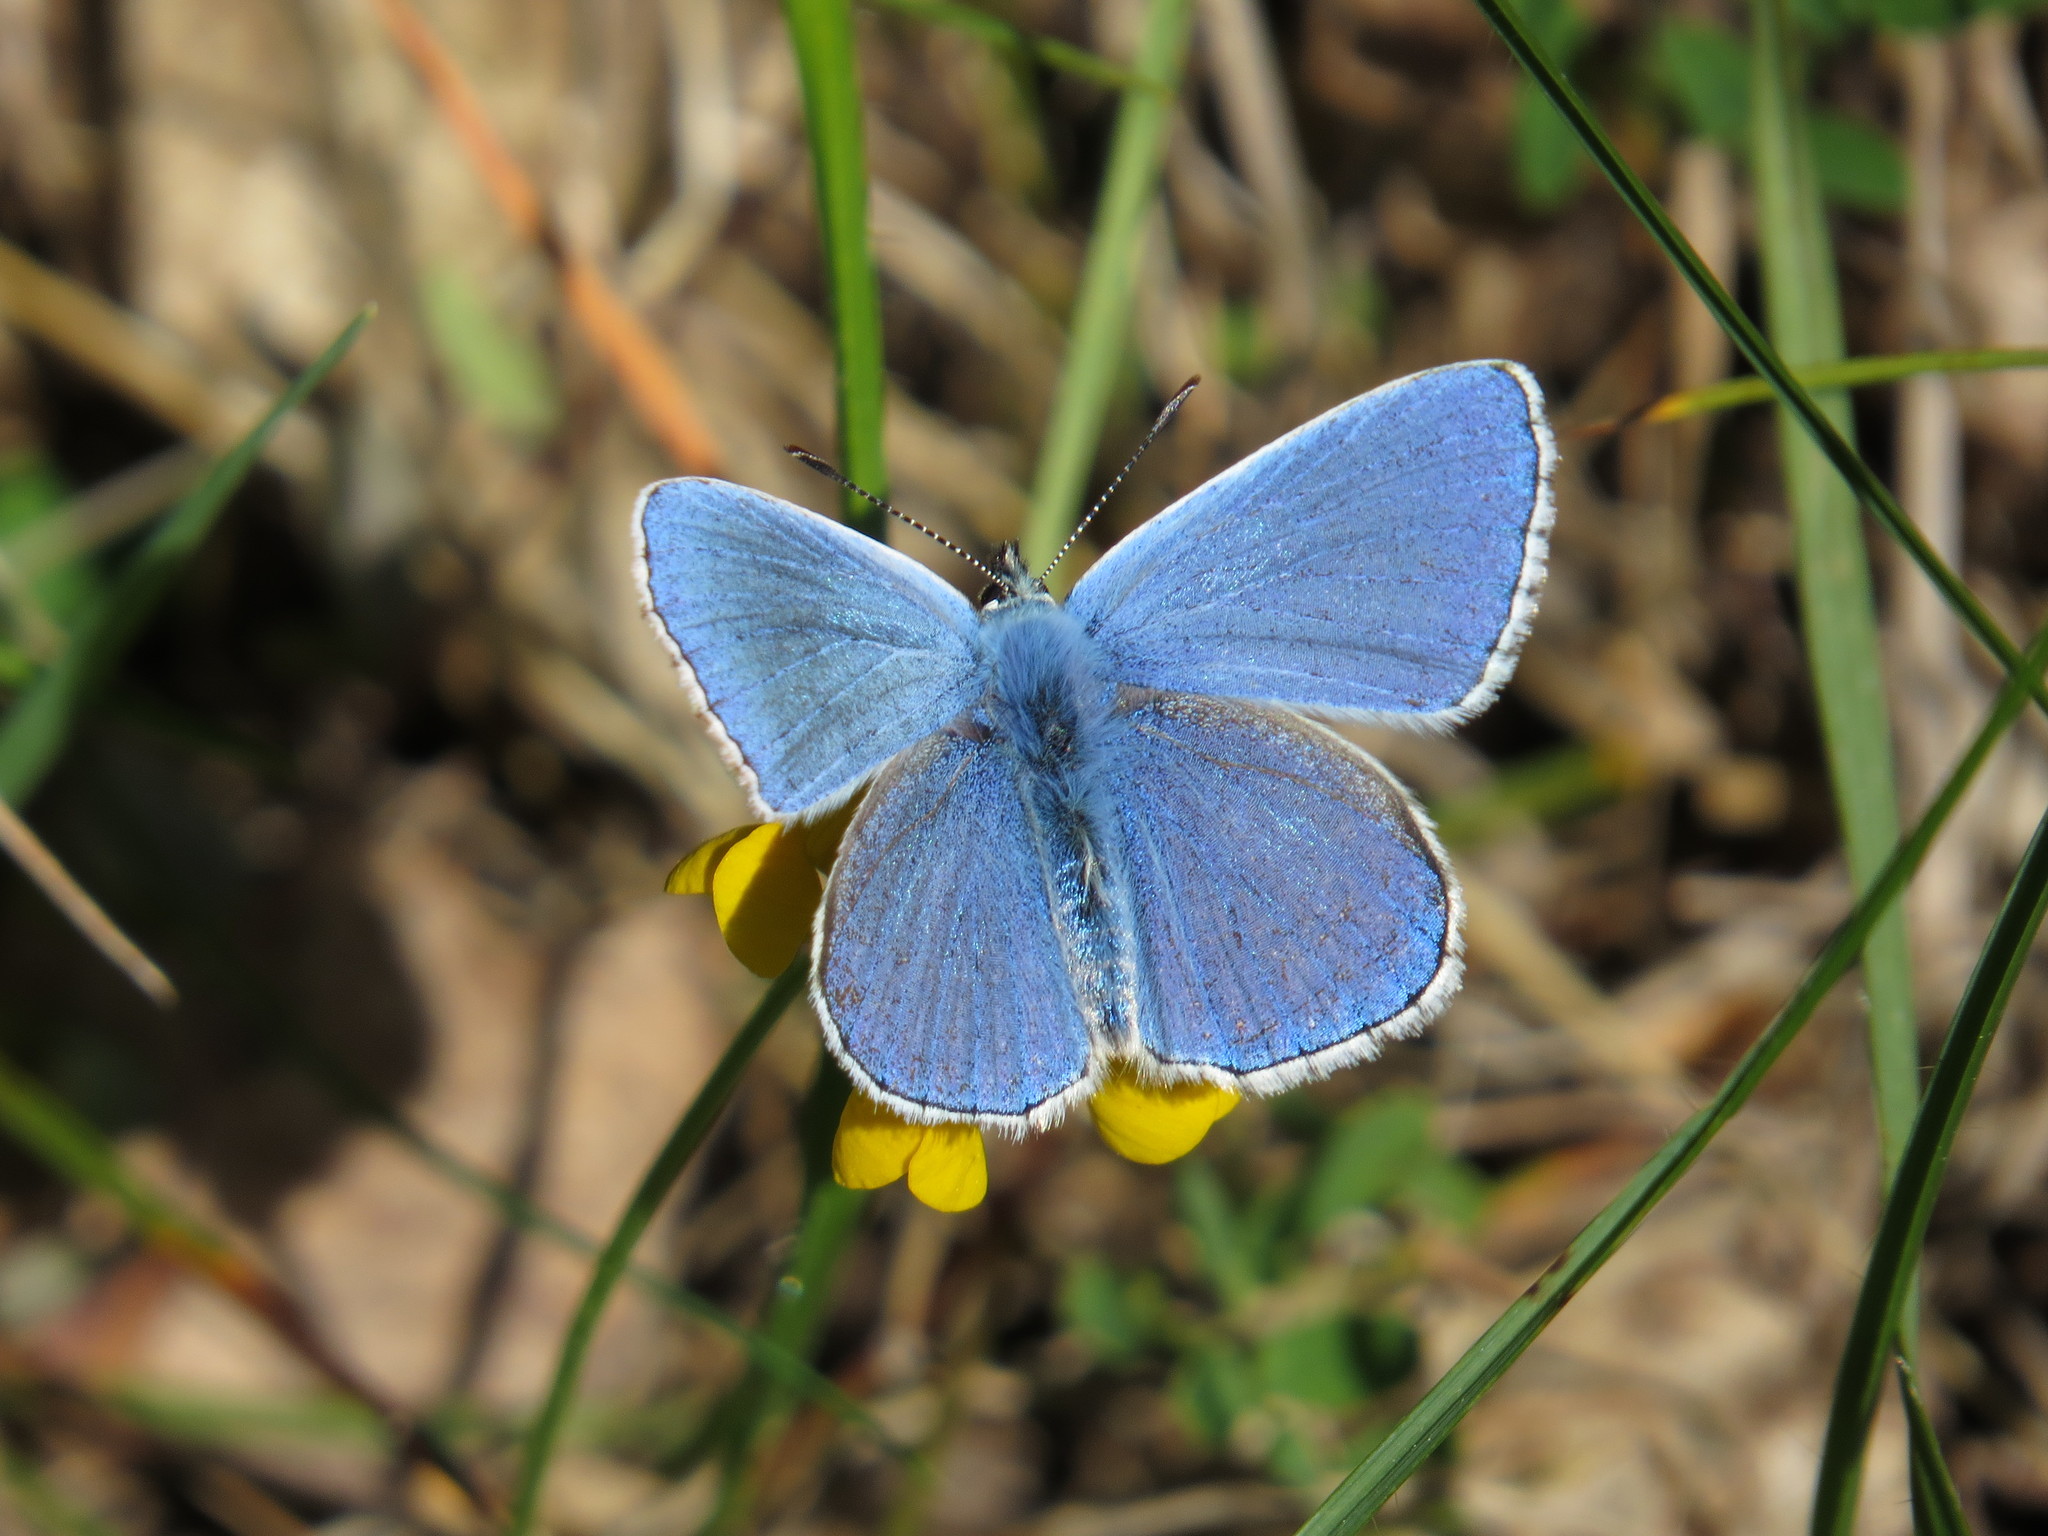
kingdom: Animalia
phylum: Arthropoda
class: Insecta
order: Lepidoptera
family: Lycaenidae
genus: Lysandra
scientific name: Lysandra bellargus
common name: Adonis blue
